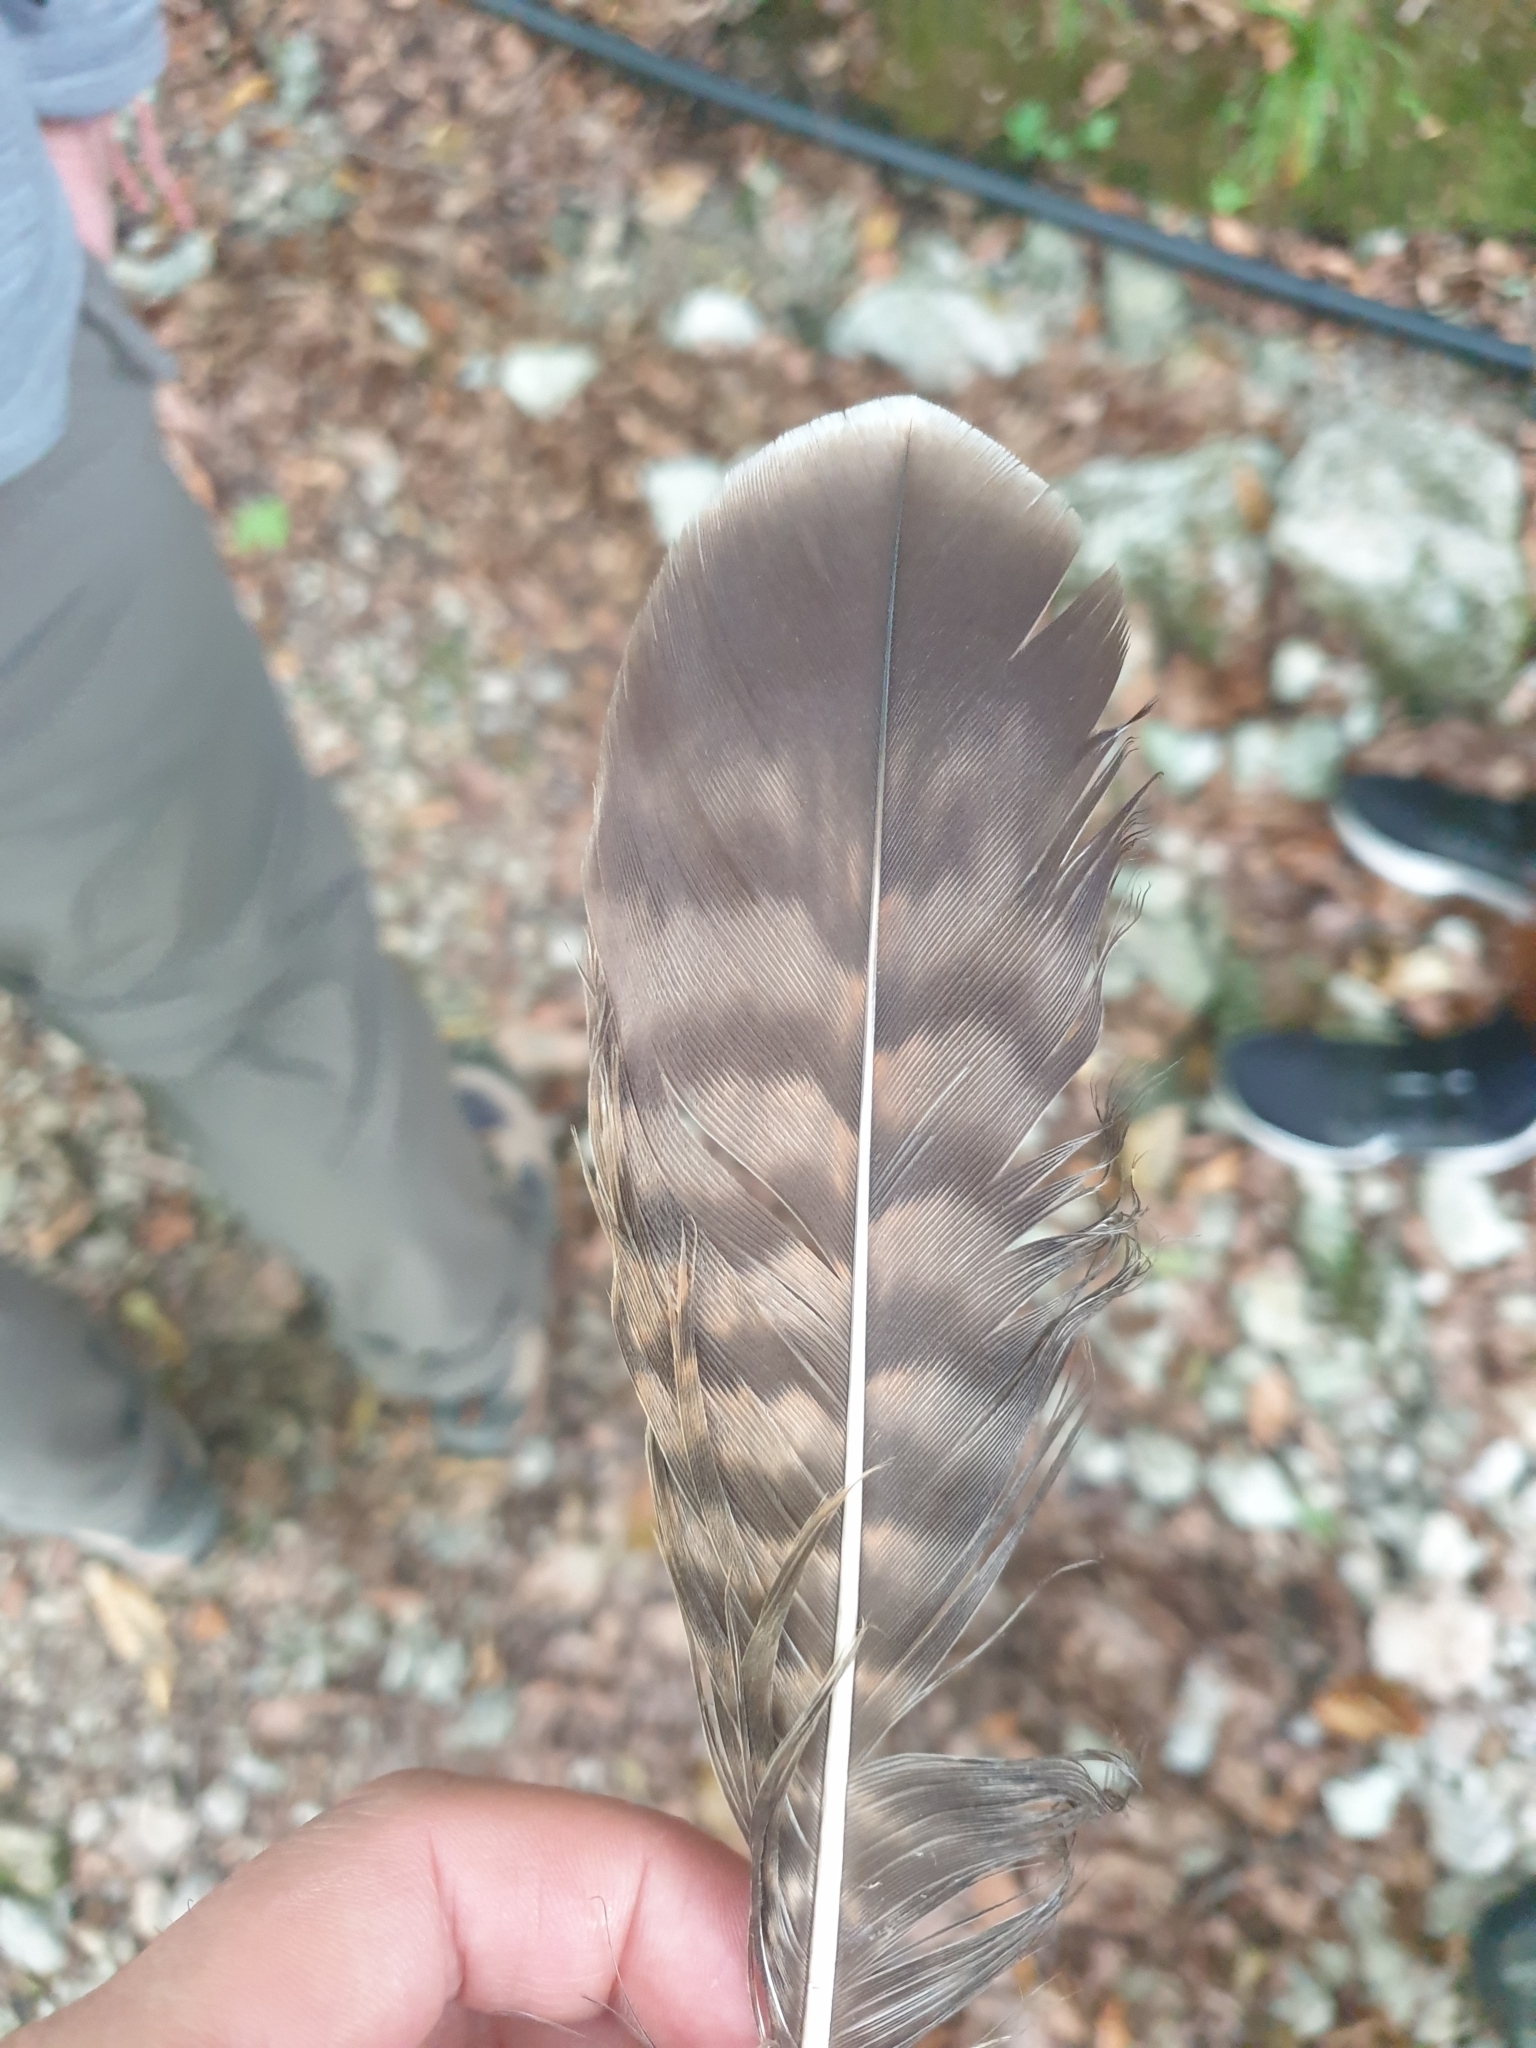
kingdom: Animalia
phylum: Chordata
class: Aves
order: Accipitriformes
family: Accipitridae
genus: Buteo
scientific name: Buteo buteo
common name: Common buzzard
